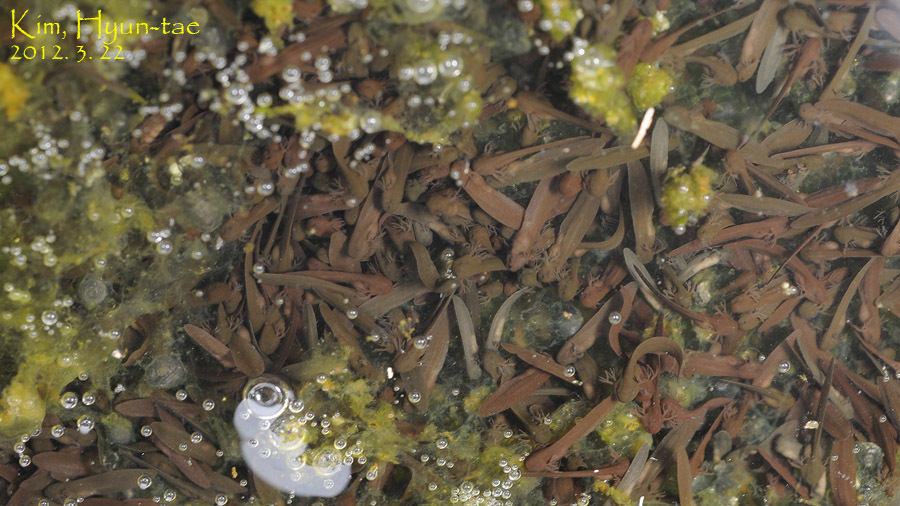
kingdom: Animalia
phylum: Chordata
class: Amphibia
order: Anura
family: Ranidae
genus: Rana
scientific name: Rana uenoi
